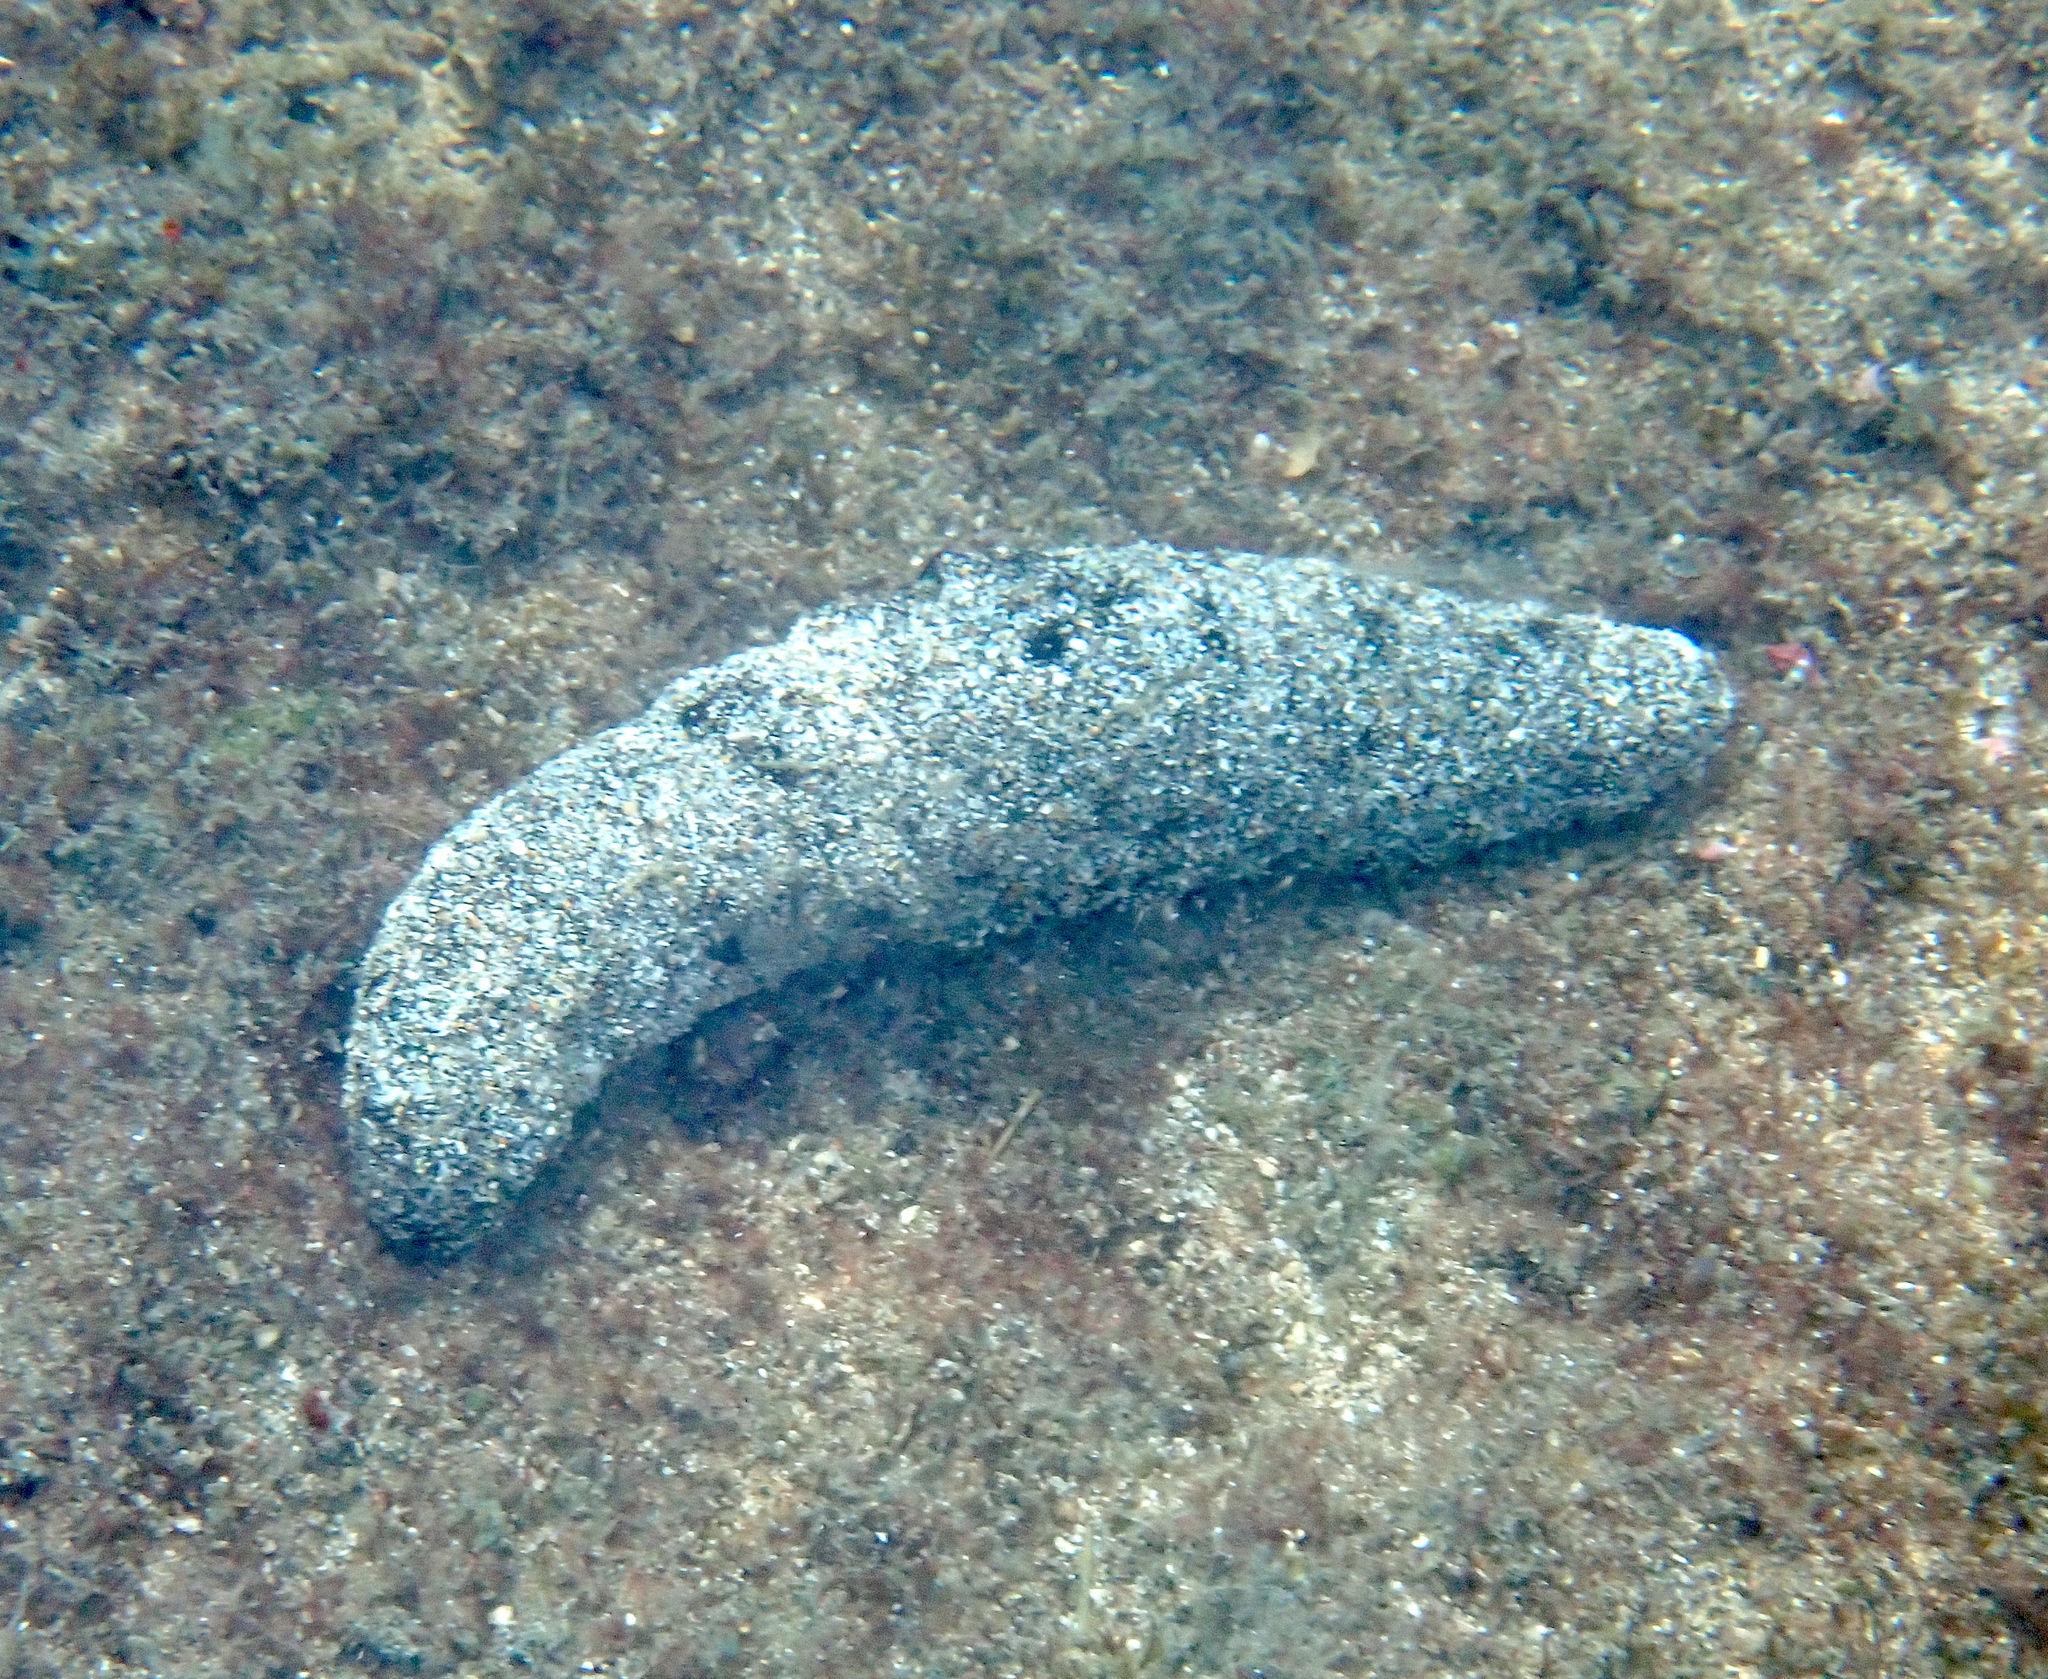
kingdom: Animalia
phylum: Echinodermata
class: Holothuroidea
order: Holothuriida
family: Holothuriidae
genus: Holothuria
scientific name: Holothuria atra
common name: Lollyfish
